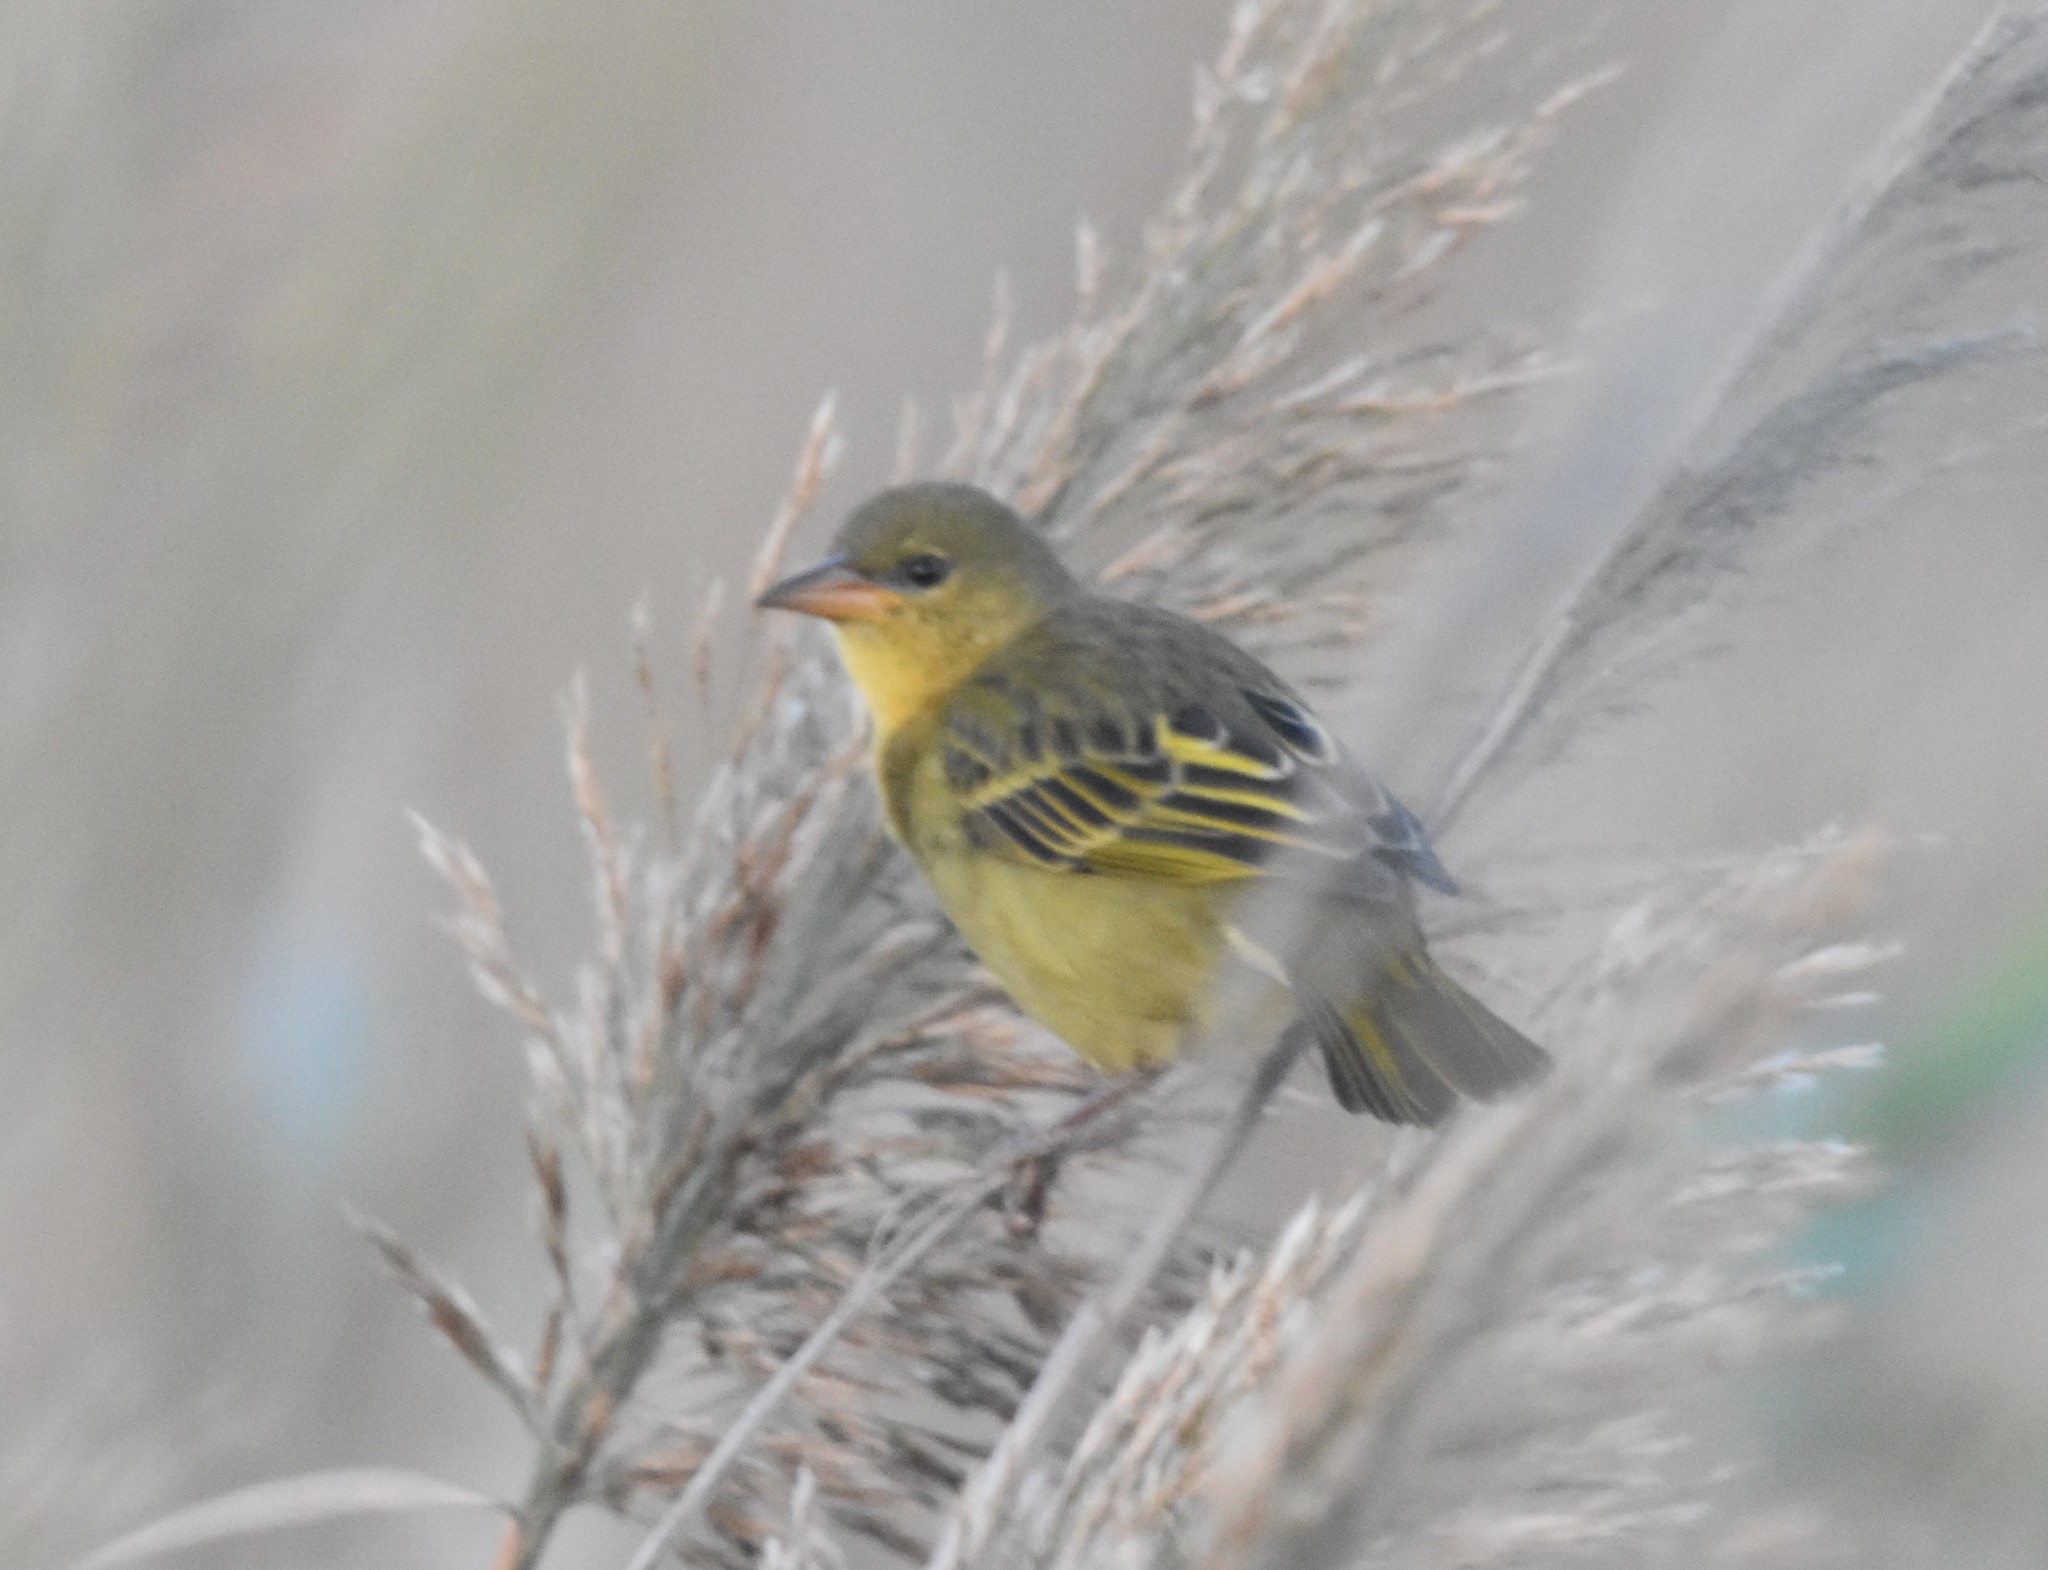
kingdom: Animalia
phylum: Chordata
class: Aves
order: Passeriformes
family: Ploceidae
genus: Ploceus
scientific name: Ploceus capensis
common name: Cape weaver
